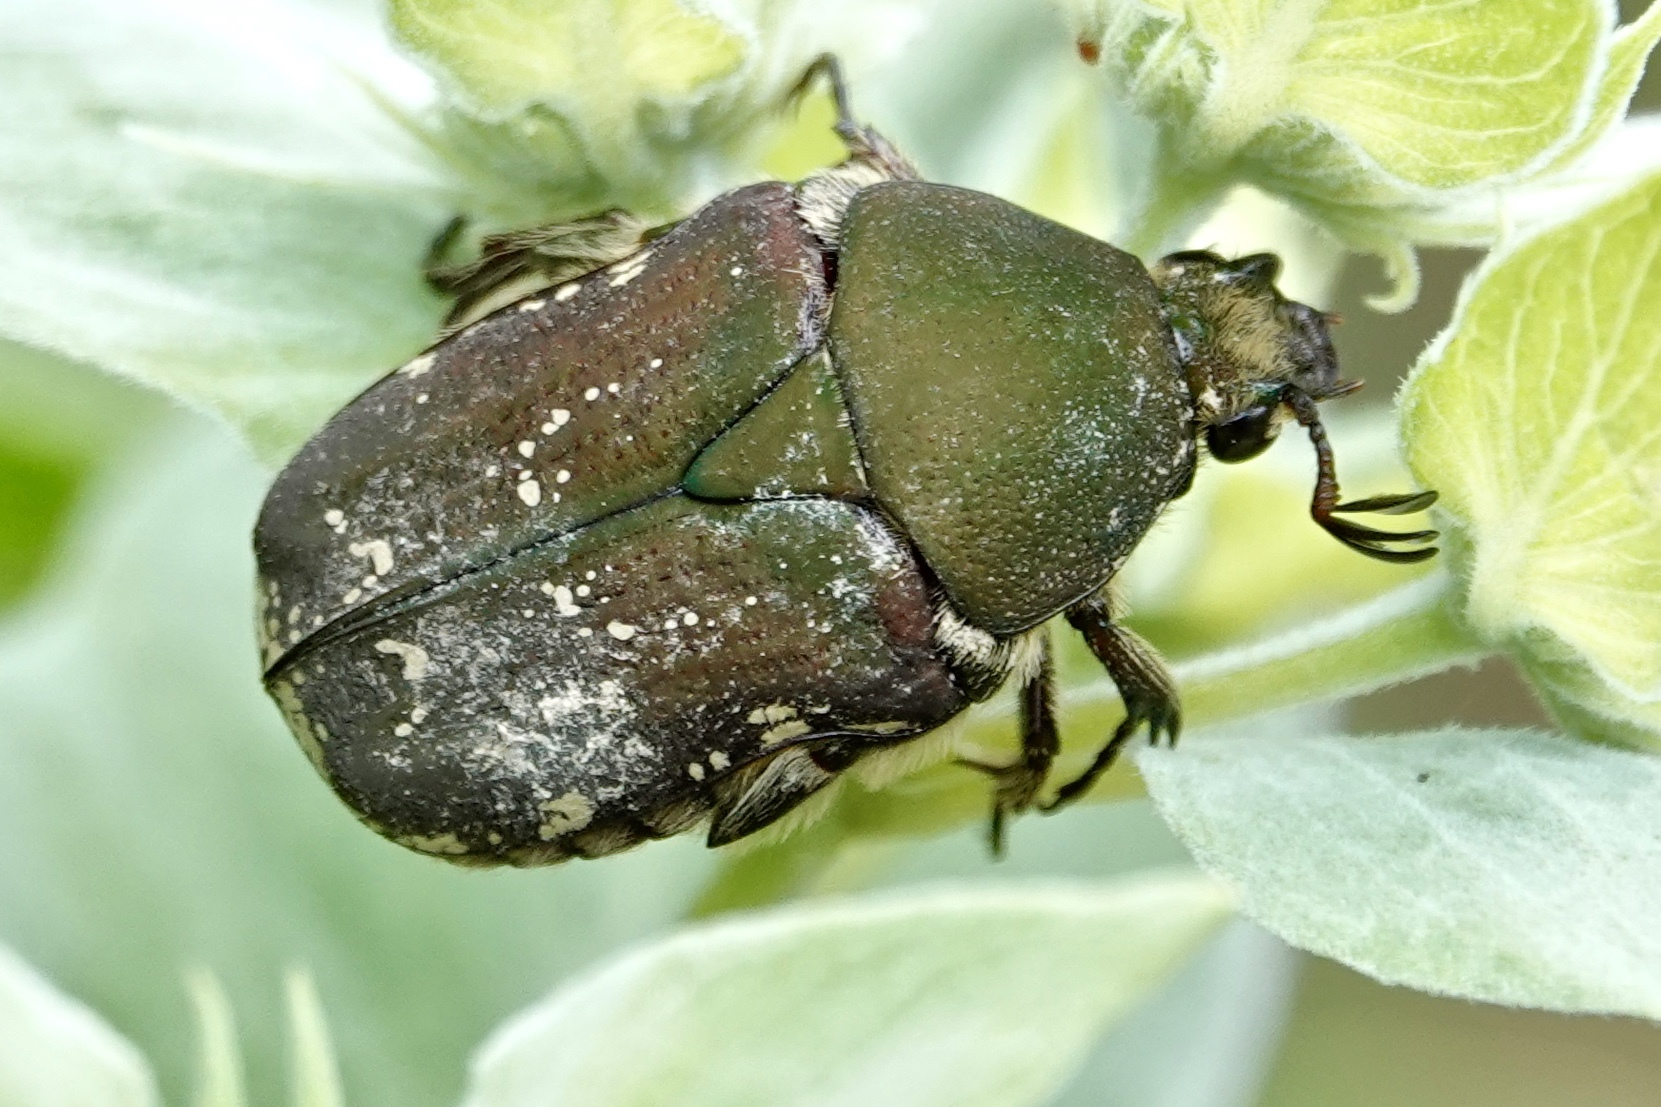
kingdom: Animalia
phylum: Arthropoda
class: Insecta
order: Coleoptera
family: Scarabaeidae
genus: Euphoria
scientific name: Euphoria herbacea
